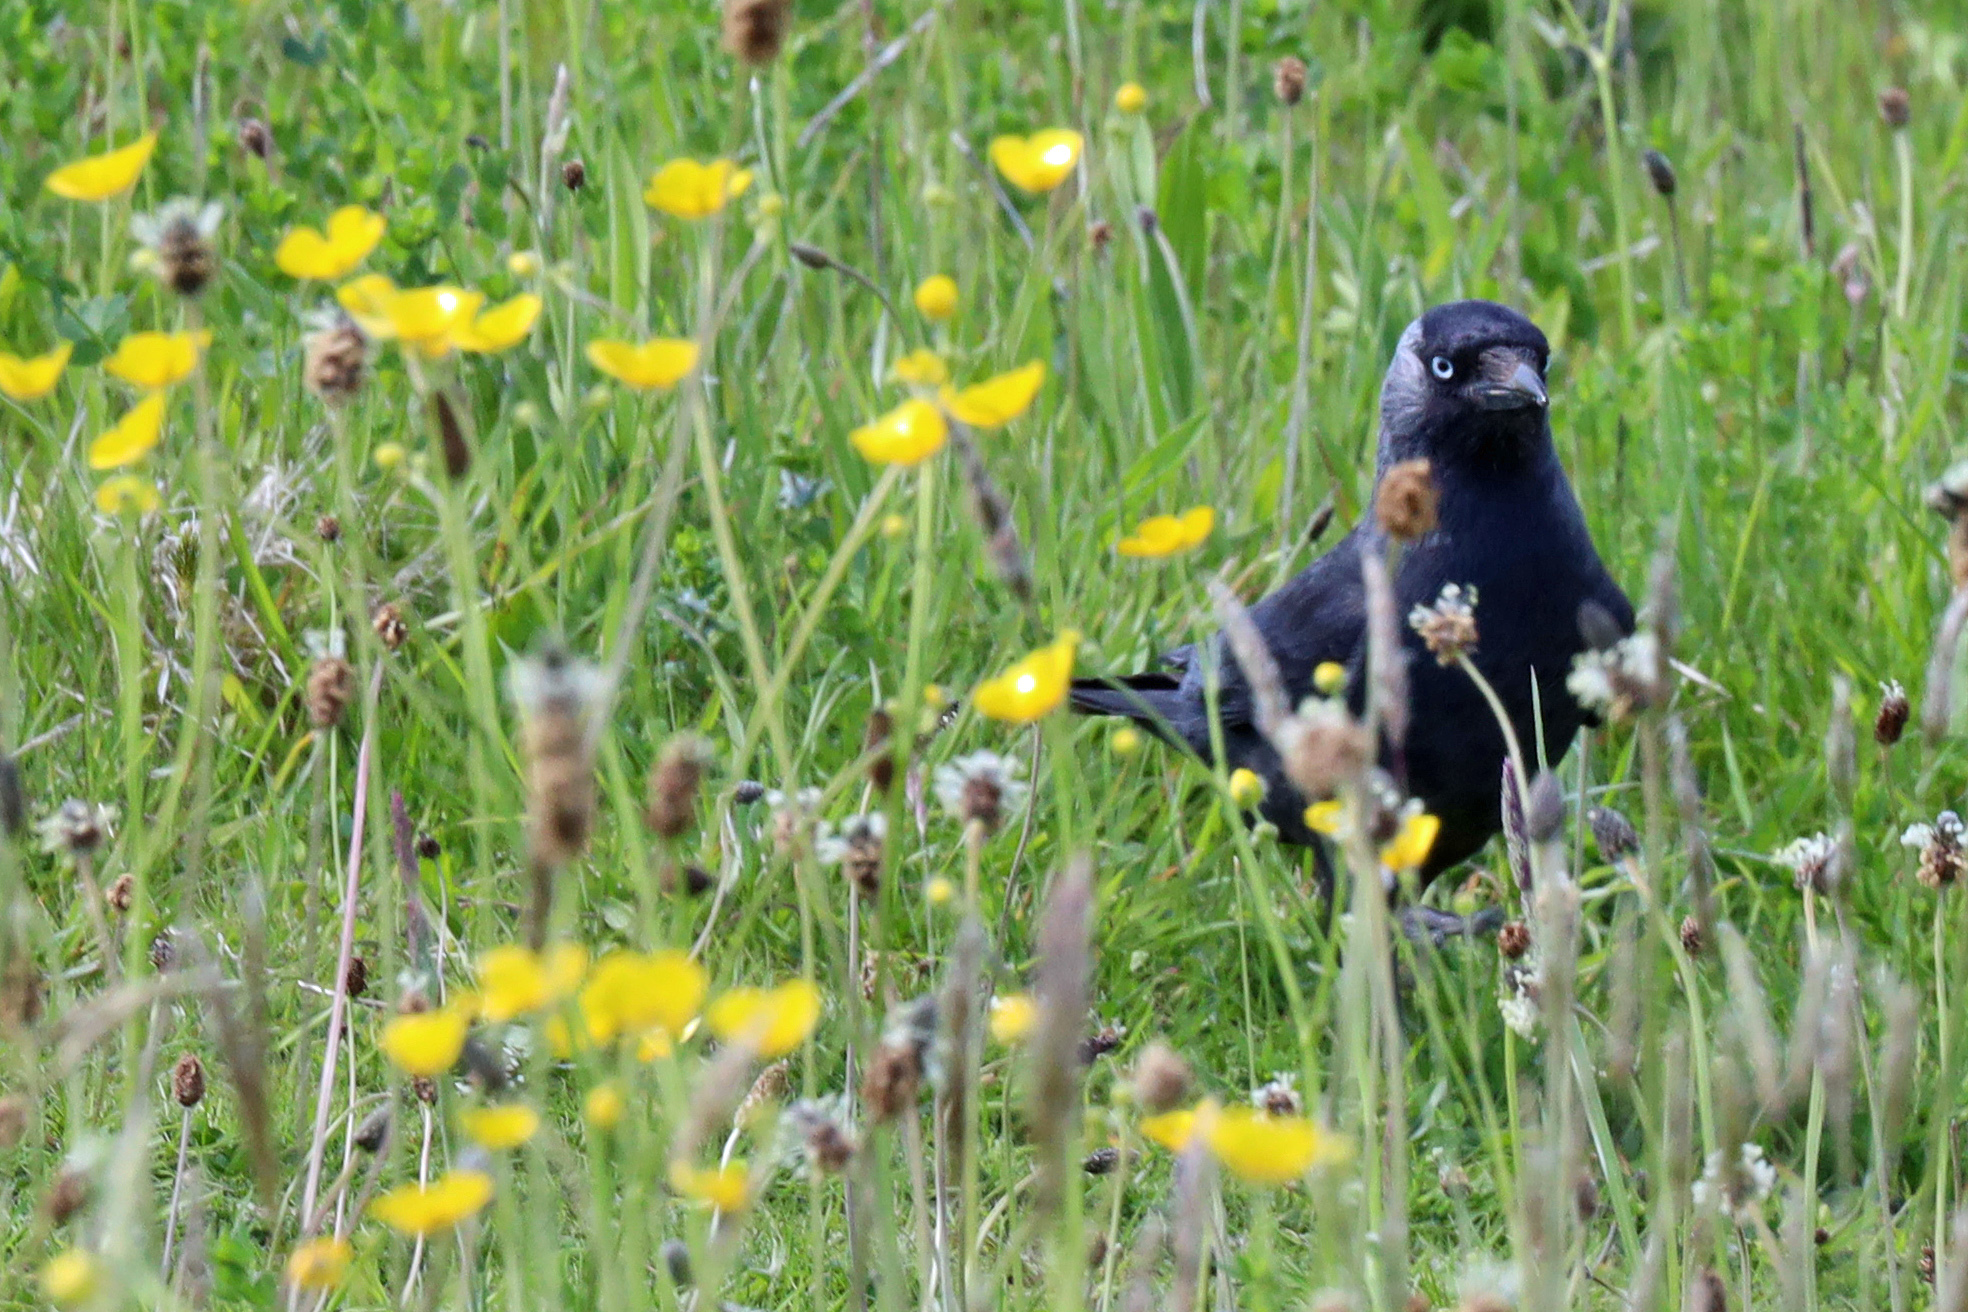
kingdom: Animalia
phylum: Chordata
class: Aves
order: Passeriformes
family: Corvidae
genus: Coloeus
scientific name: Coloeus monedula
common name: Western jackdaw
